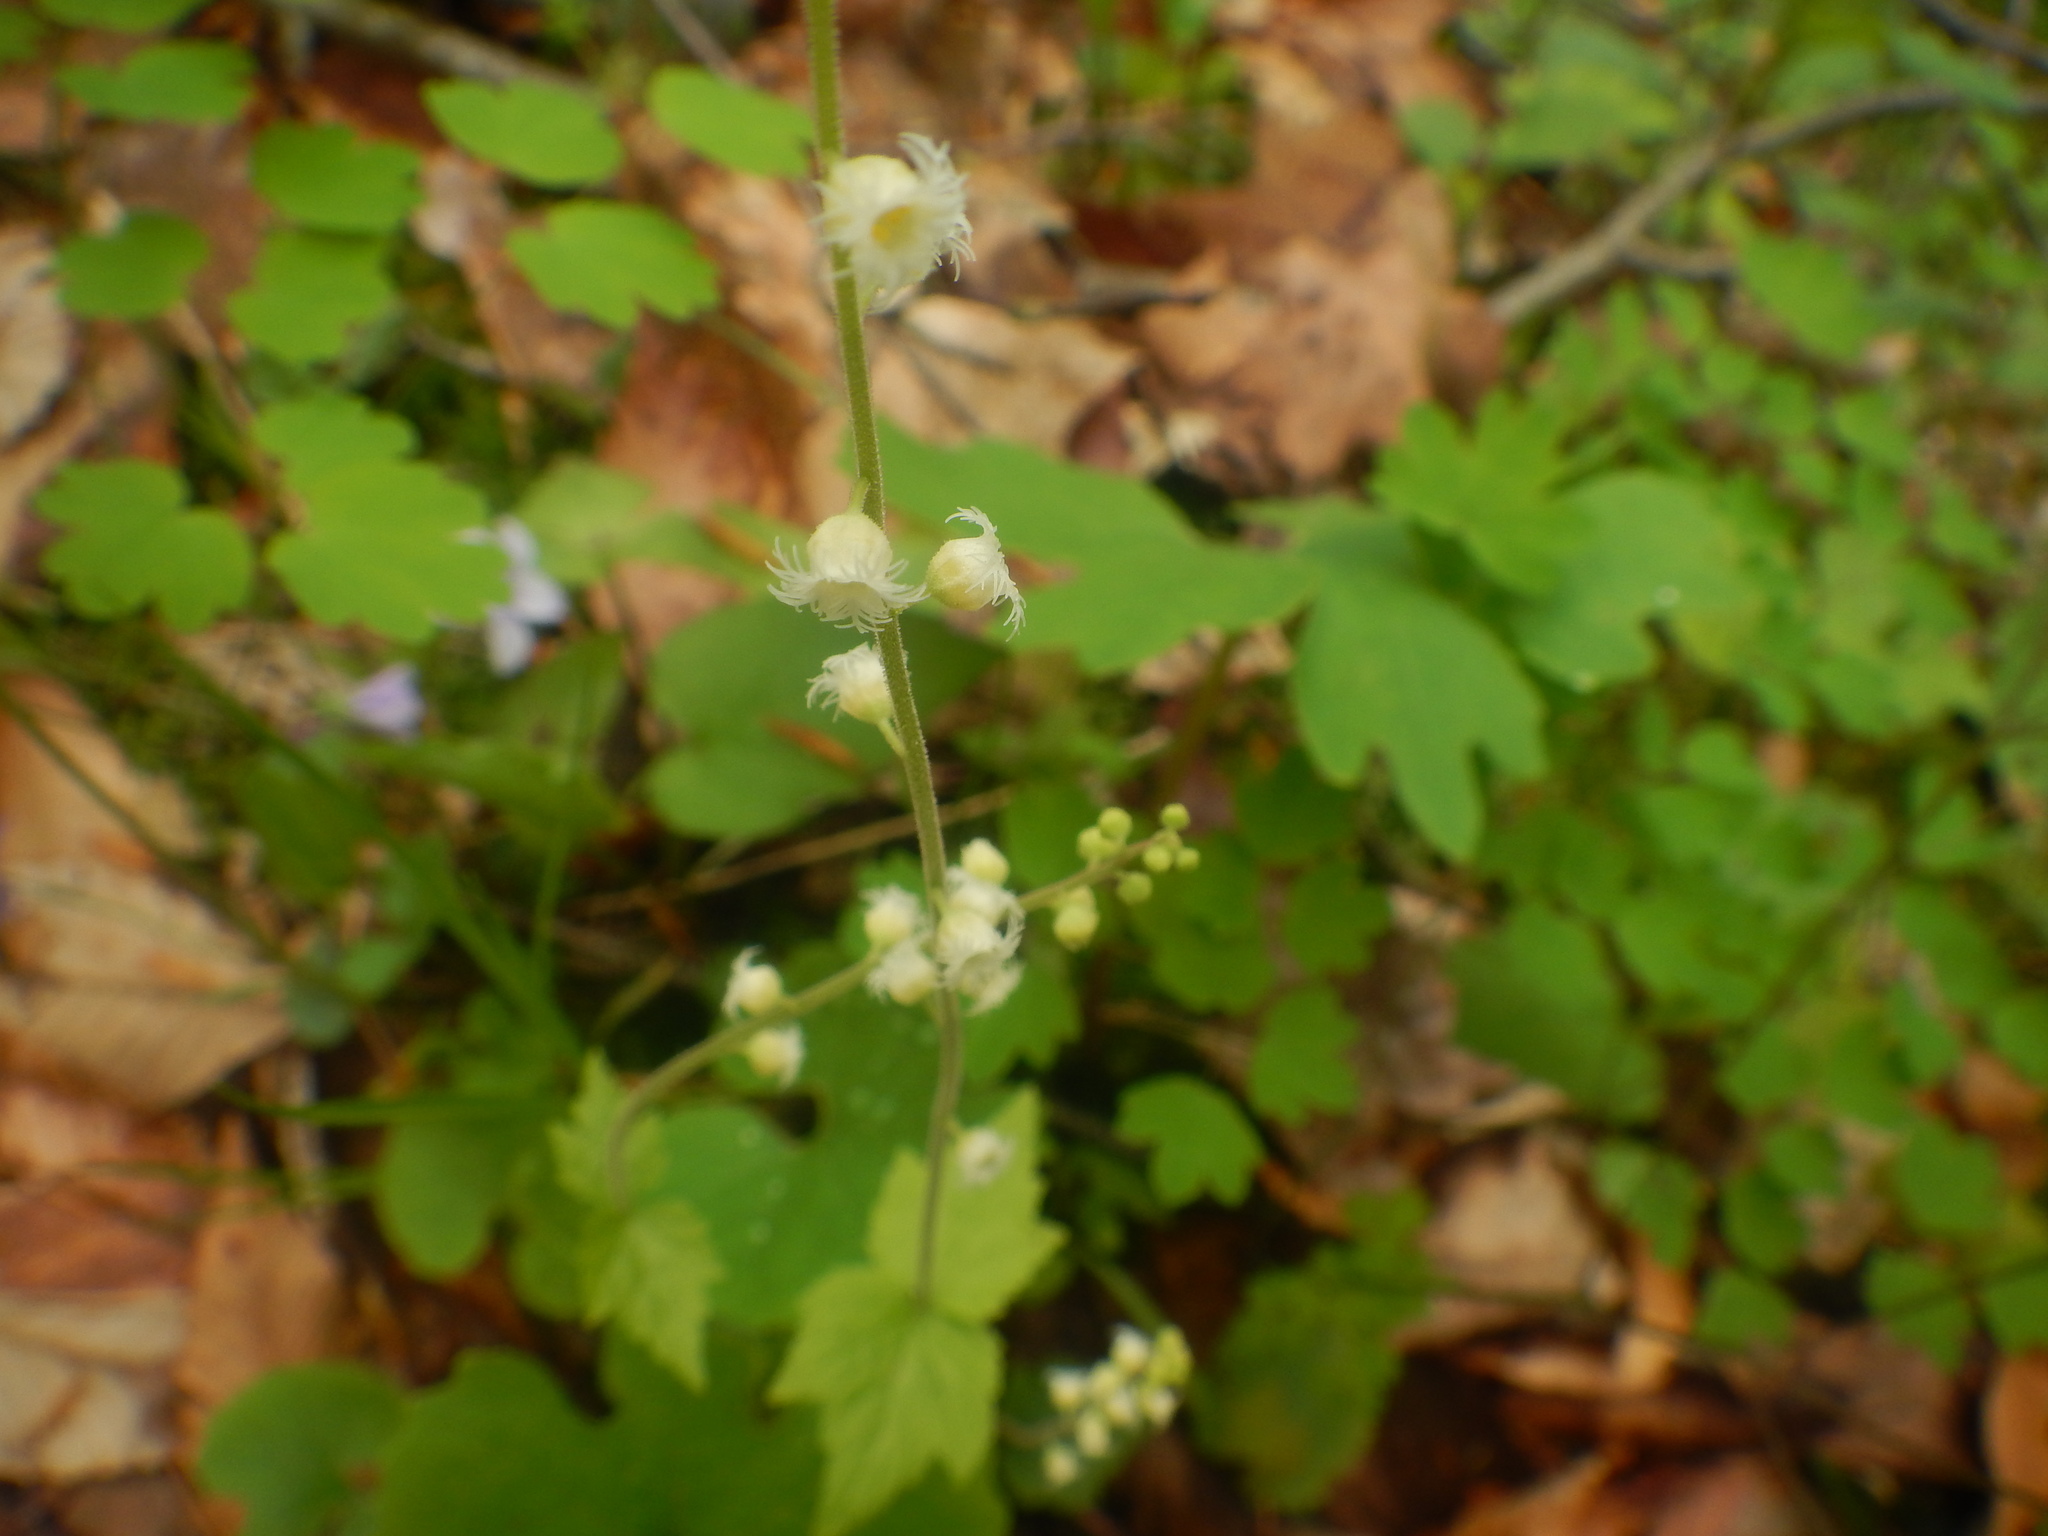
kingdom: Plantae
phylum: Tracheophyta
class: Magnoliopsida
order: Saxifragales
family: Saxifragaceae
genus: Mitella
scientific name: Mitella diphylla
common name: Coolwort
